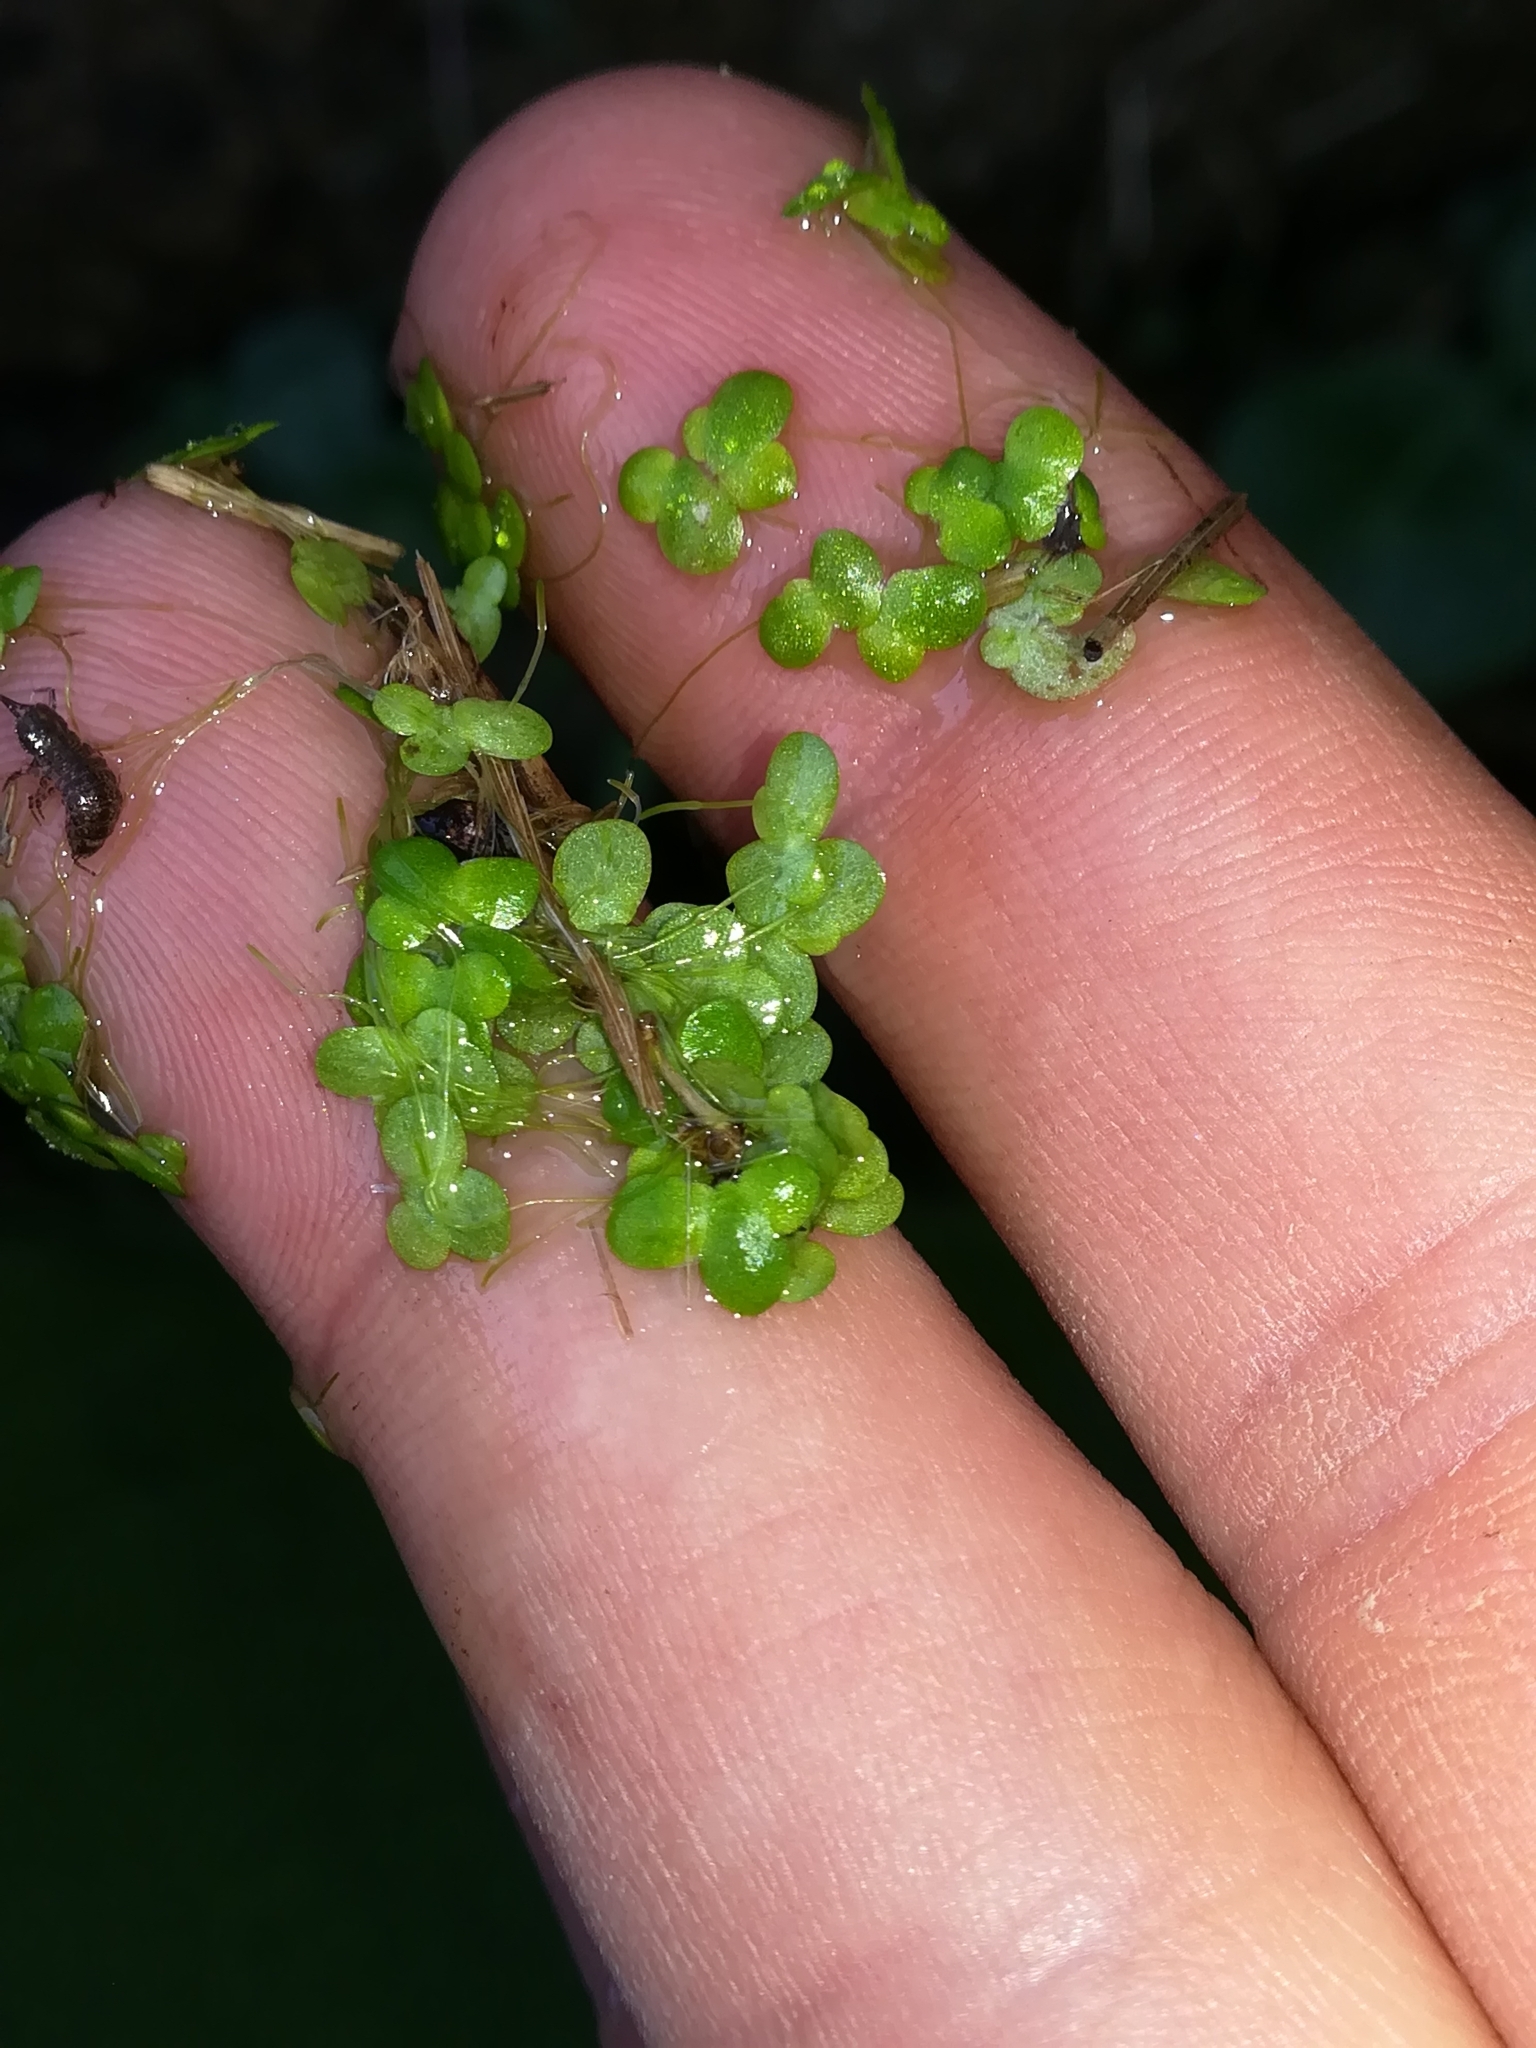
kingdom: Plantae
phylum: Tracheophyta
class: Liliopsida
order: Alismatales
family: Araceae
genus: Lemna
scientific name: Lemna minor
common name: Common duckweed
